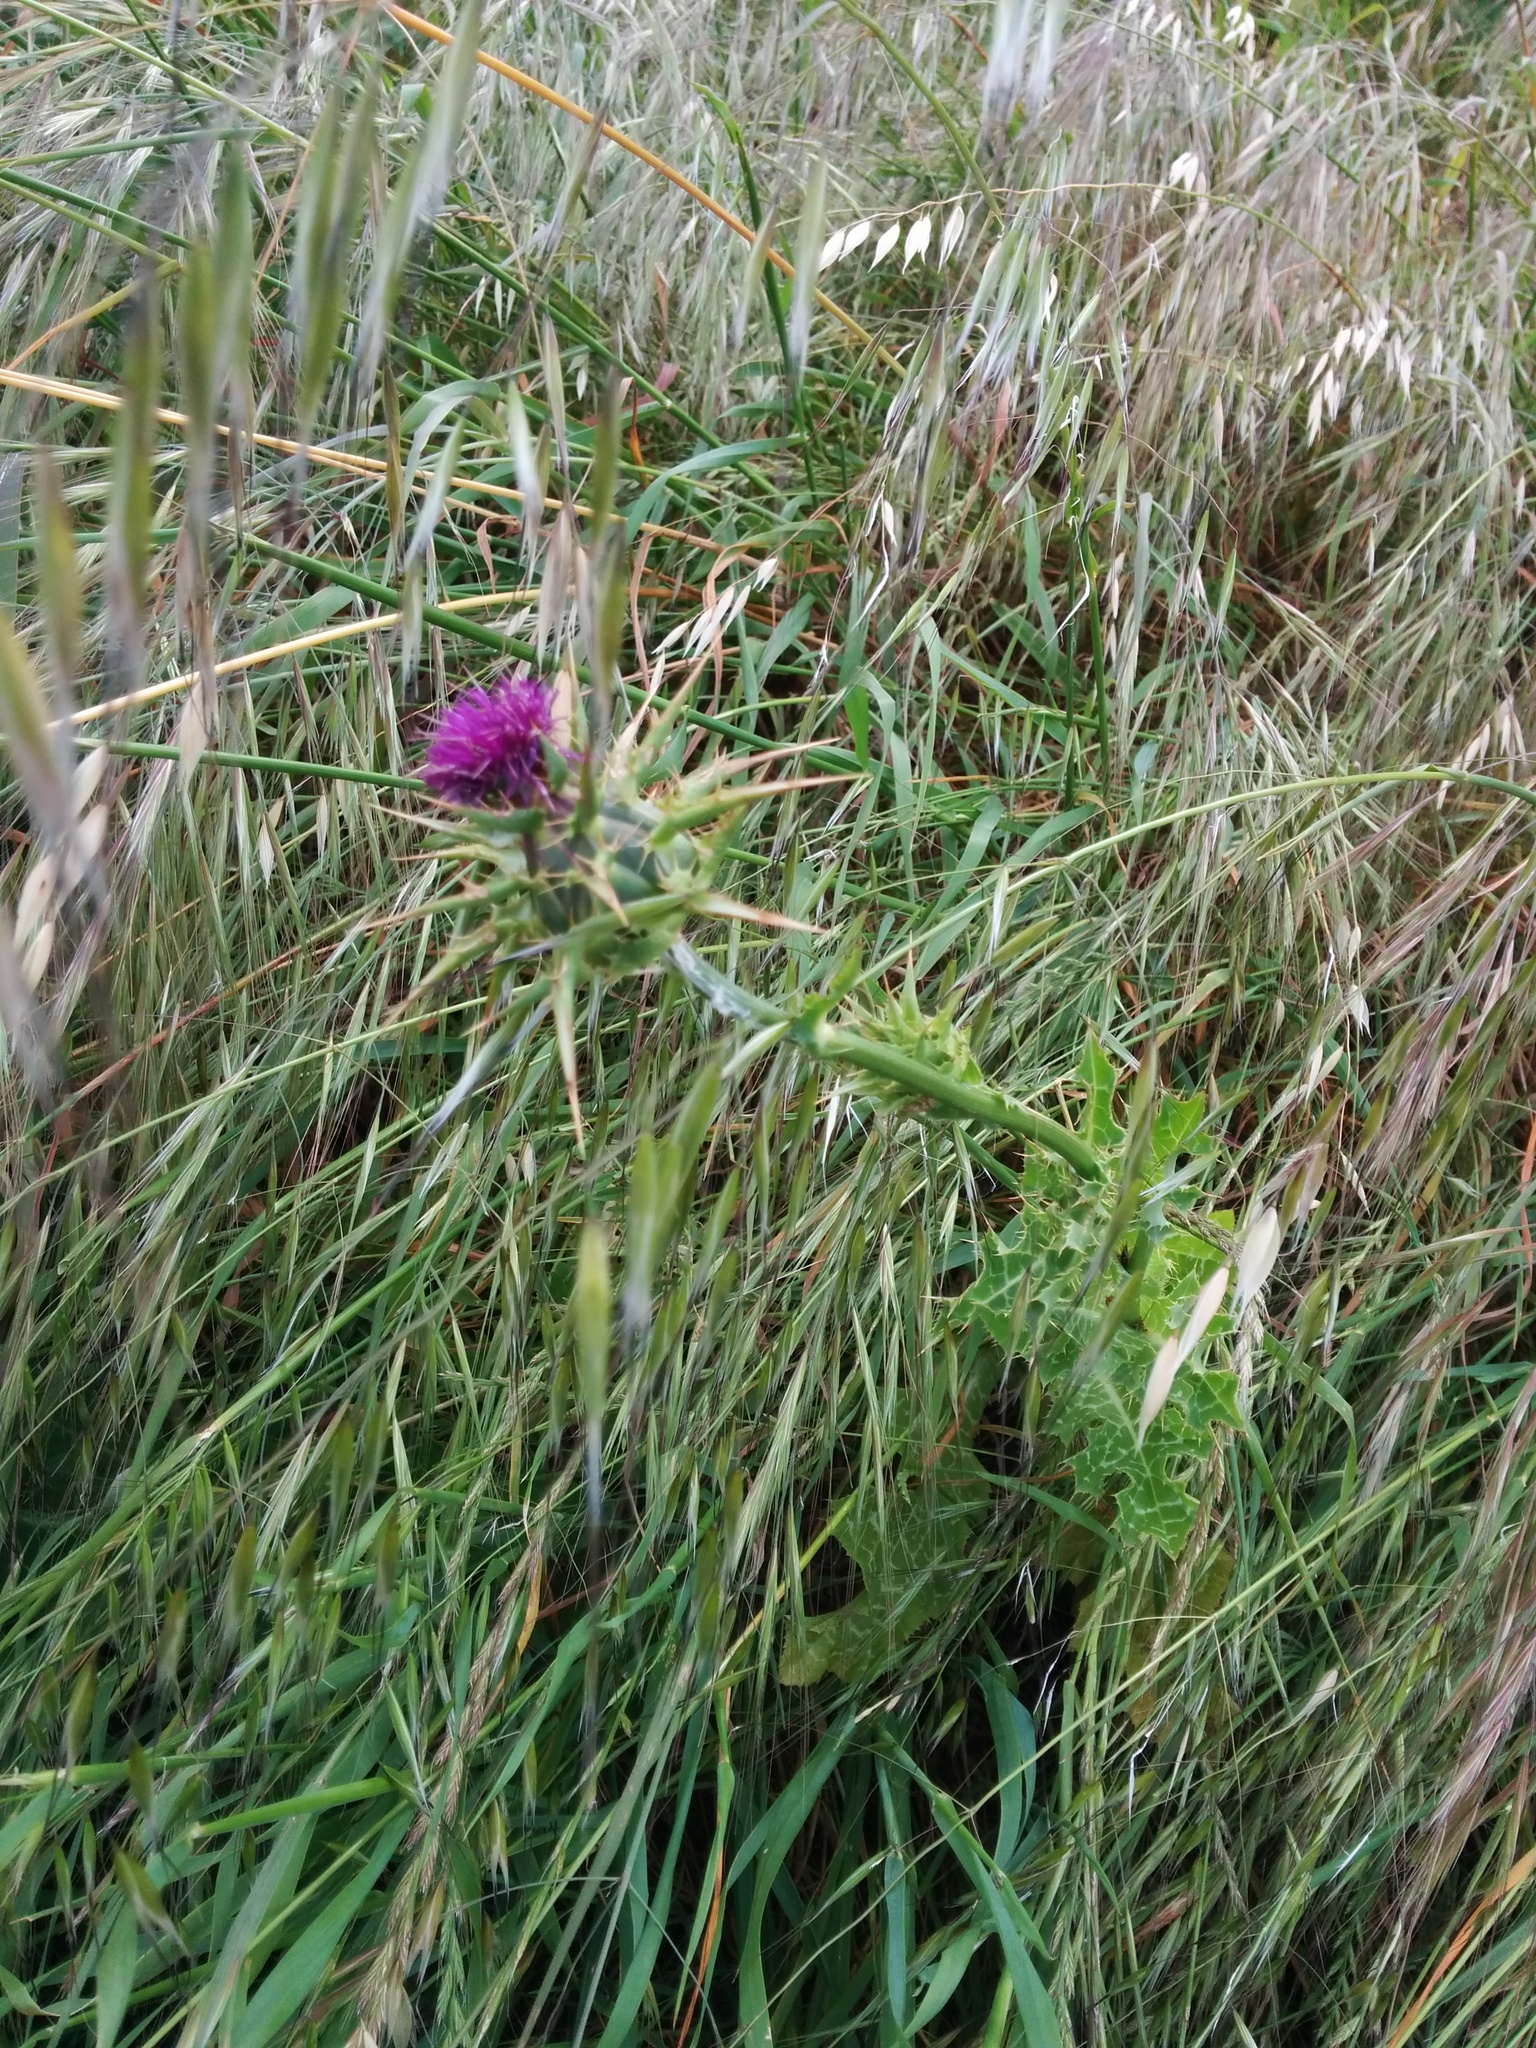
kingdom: Plantae
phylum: Tracheophyta
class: Magnoliopsida
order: Asterales
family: Asteraceae
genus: Silybum
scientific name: Silybum marianum
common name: Milk thistle
